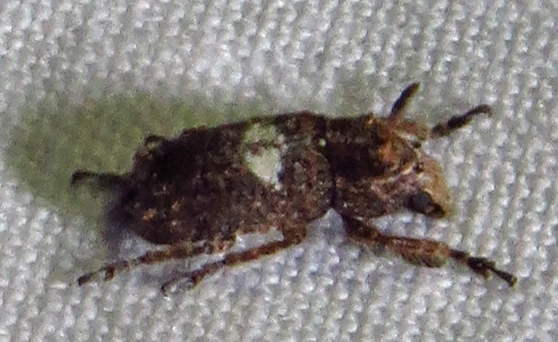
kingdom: Animalia
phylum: Arthropoda
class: Insecta
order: Coleoptera
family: Anthribidae
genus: Toxonotus
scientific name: Toxonotus cornutus
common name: Fungus weevil
